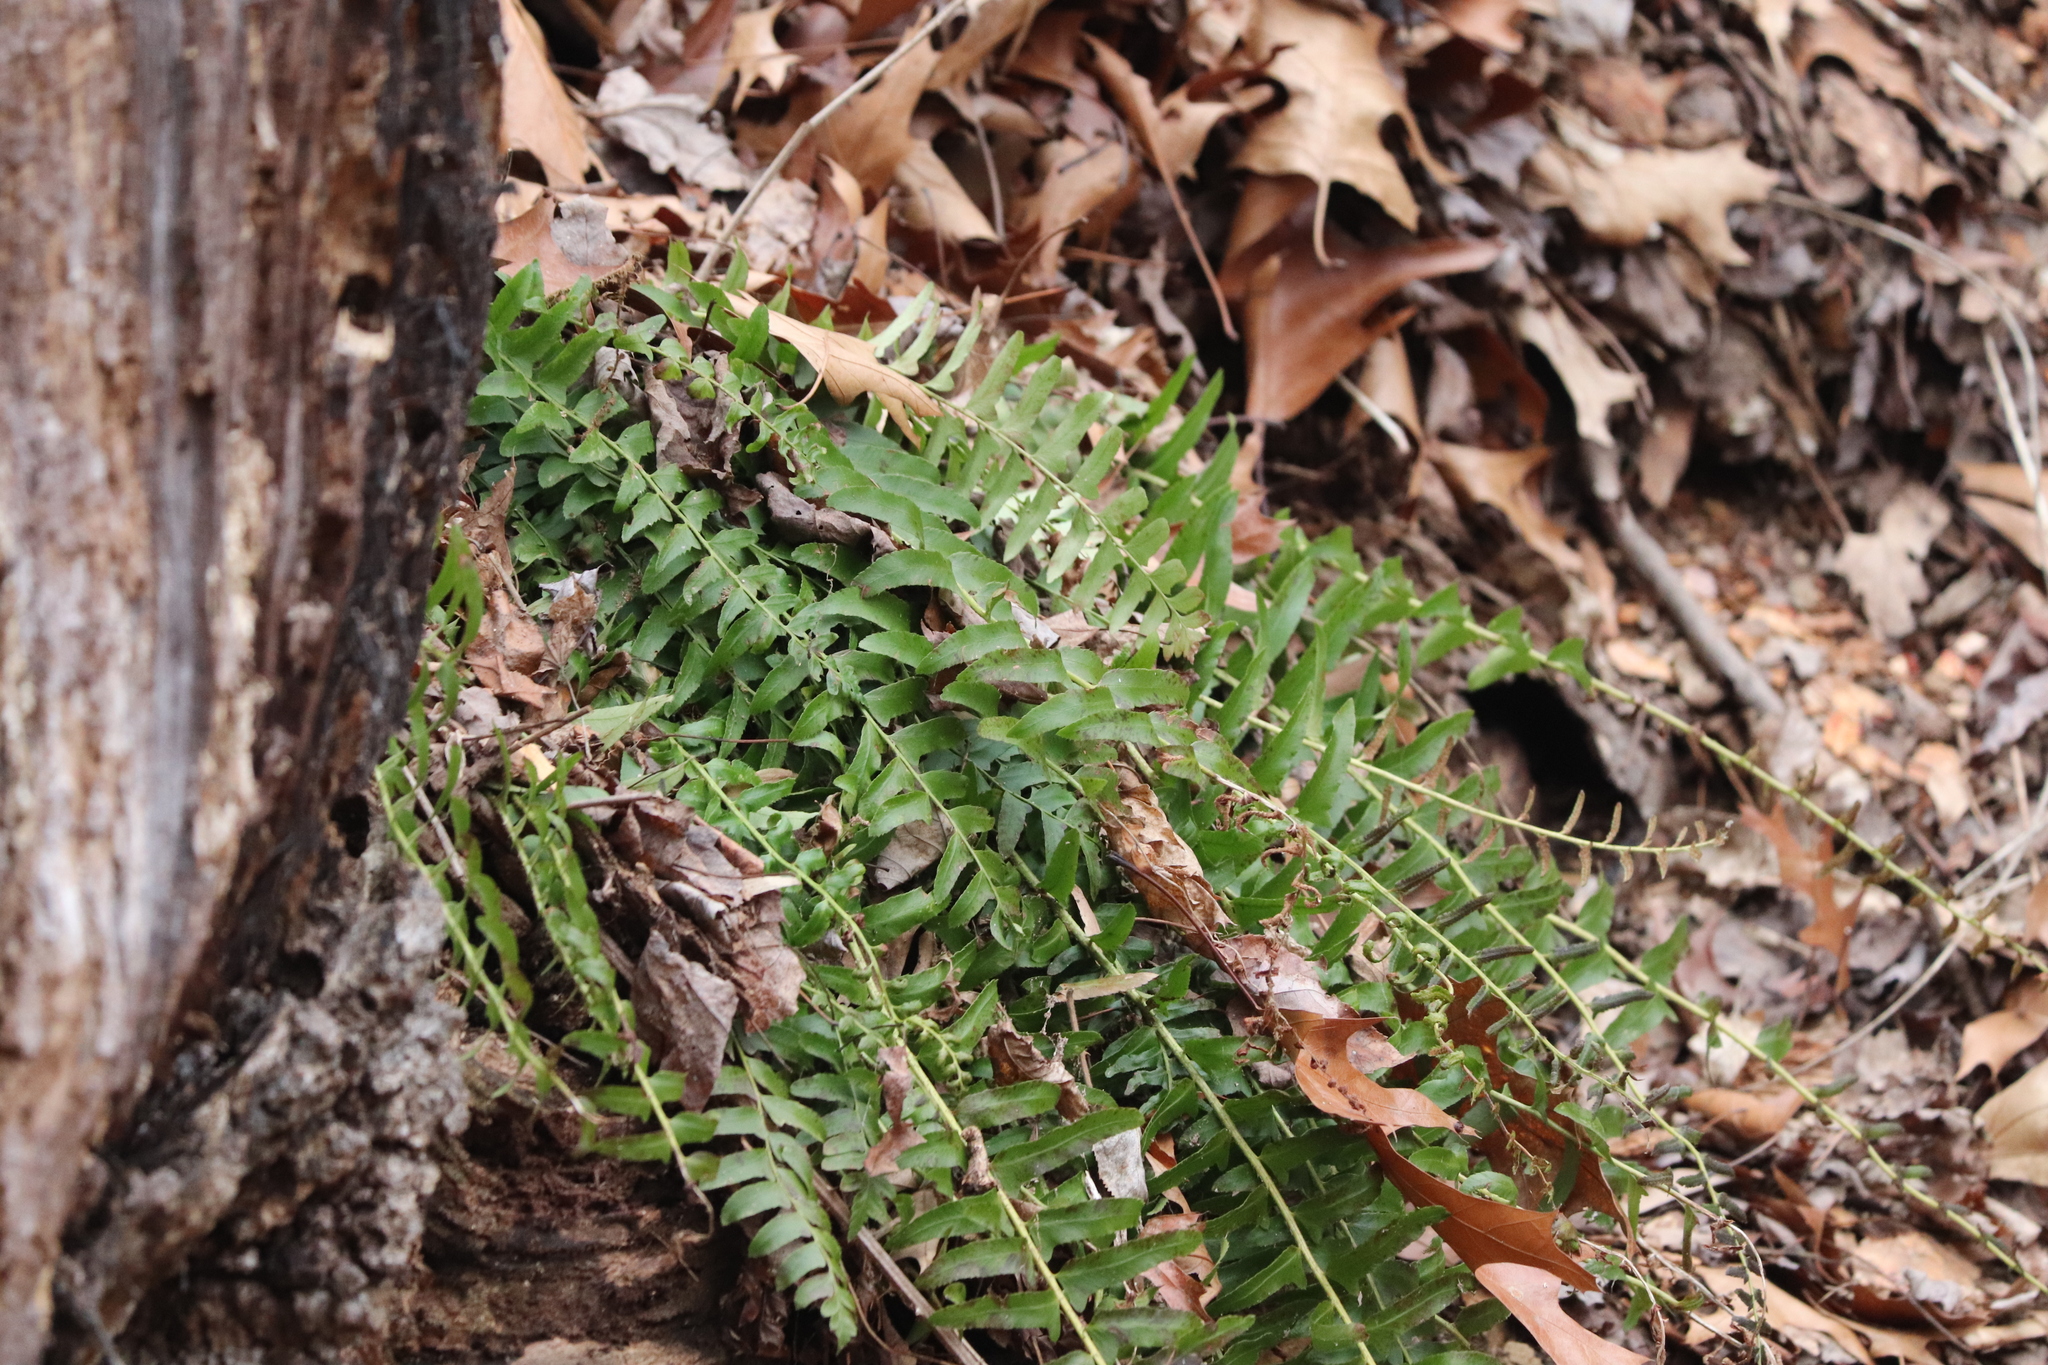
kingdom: Plantae
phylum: Tracheophyta
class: Polypodiopsida
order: Polypodiales
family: Dryopteridaceae
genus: Polystichum
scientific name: Polystichum acrostichoides
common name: Christmas fern
